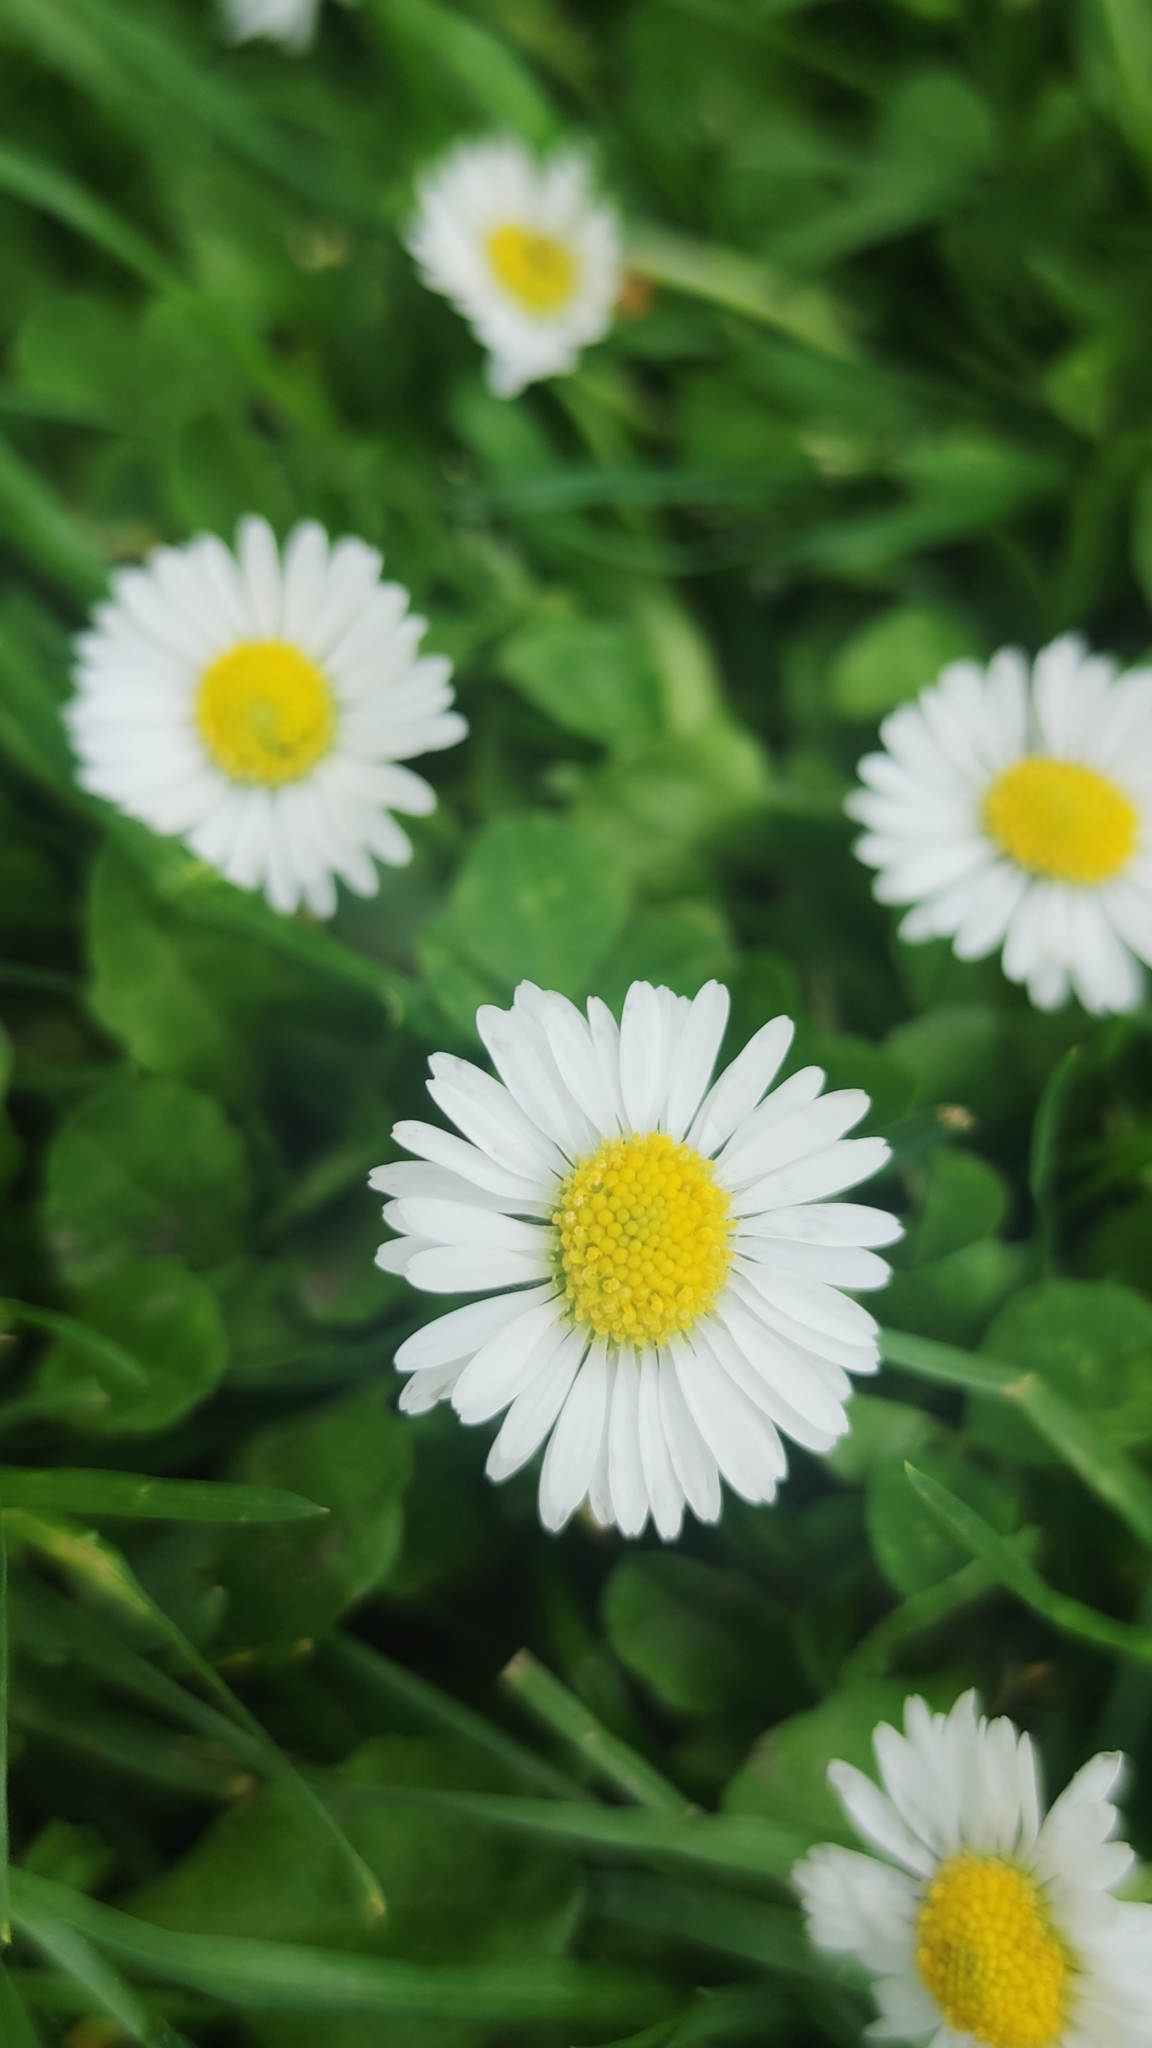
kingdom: Plantae
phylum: Tracheophyta
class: Magnoliopsida
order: Asterales
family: Asteraceae
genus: Bellis
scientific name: Bellis perennis
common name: Lawndaisy
